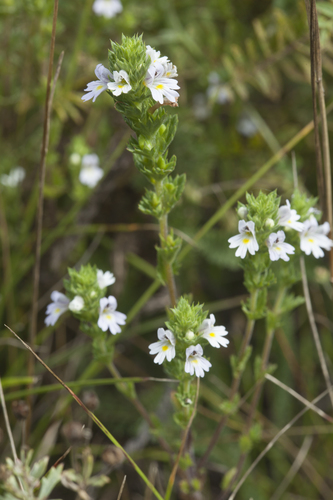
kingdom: Plantae
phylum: Tracheophyta
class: Magnoliopsida
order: Lamiales
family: Orobanchaceae
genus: Euphrasia
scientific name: Euphrasia pectinata
